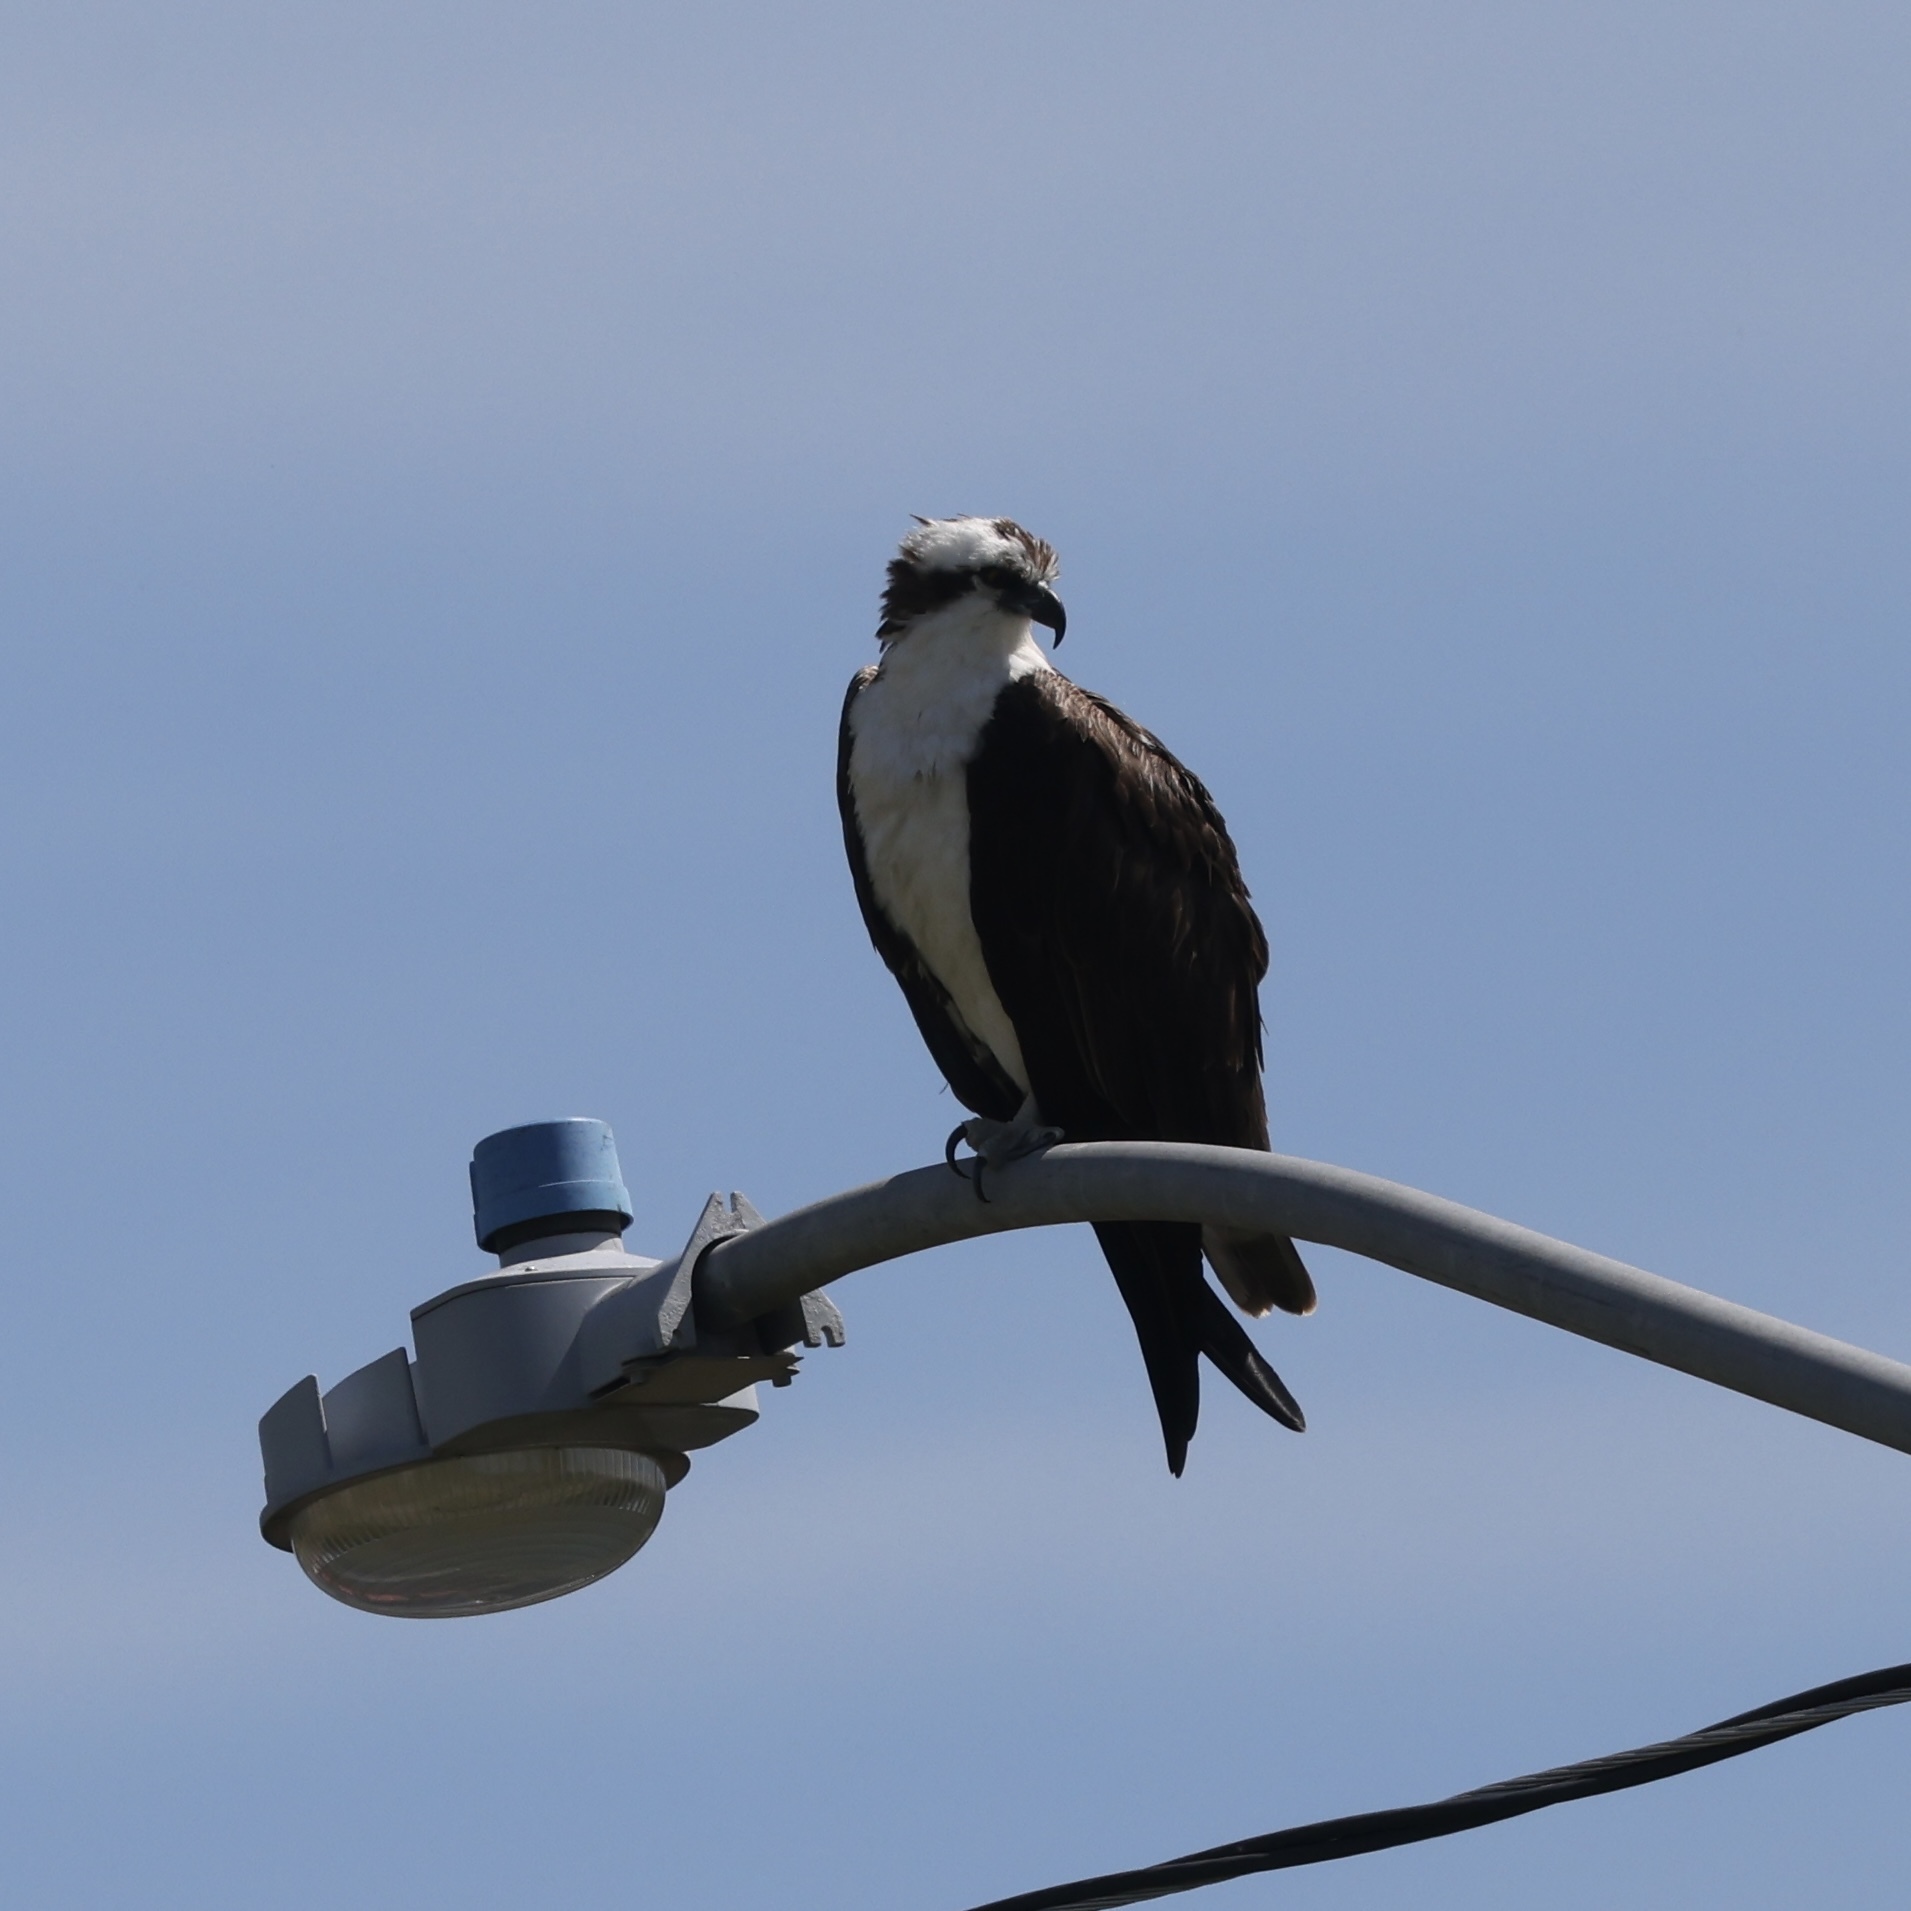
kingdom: Animalia
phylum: Chordata
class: Aves
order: Accipitriformes
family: Pandionidae
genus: Pandion
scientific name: Pandion haliaetus
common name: Osprey
